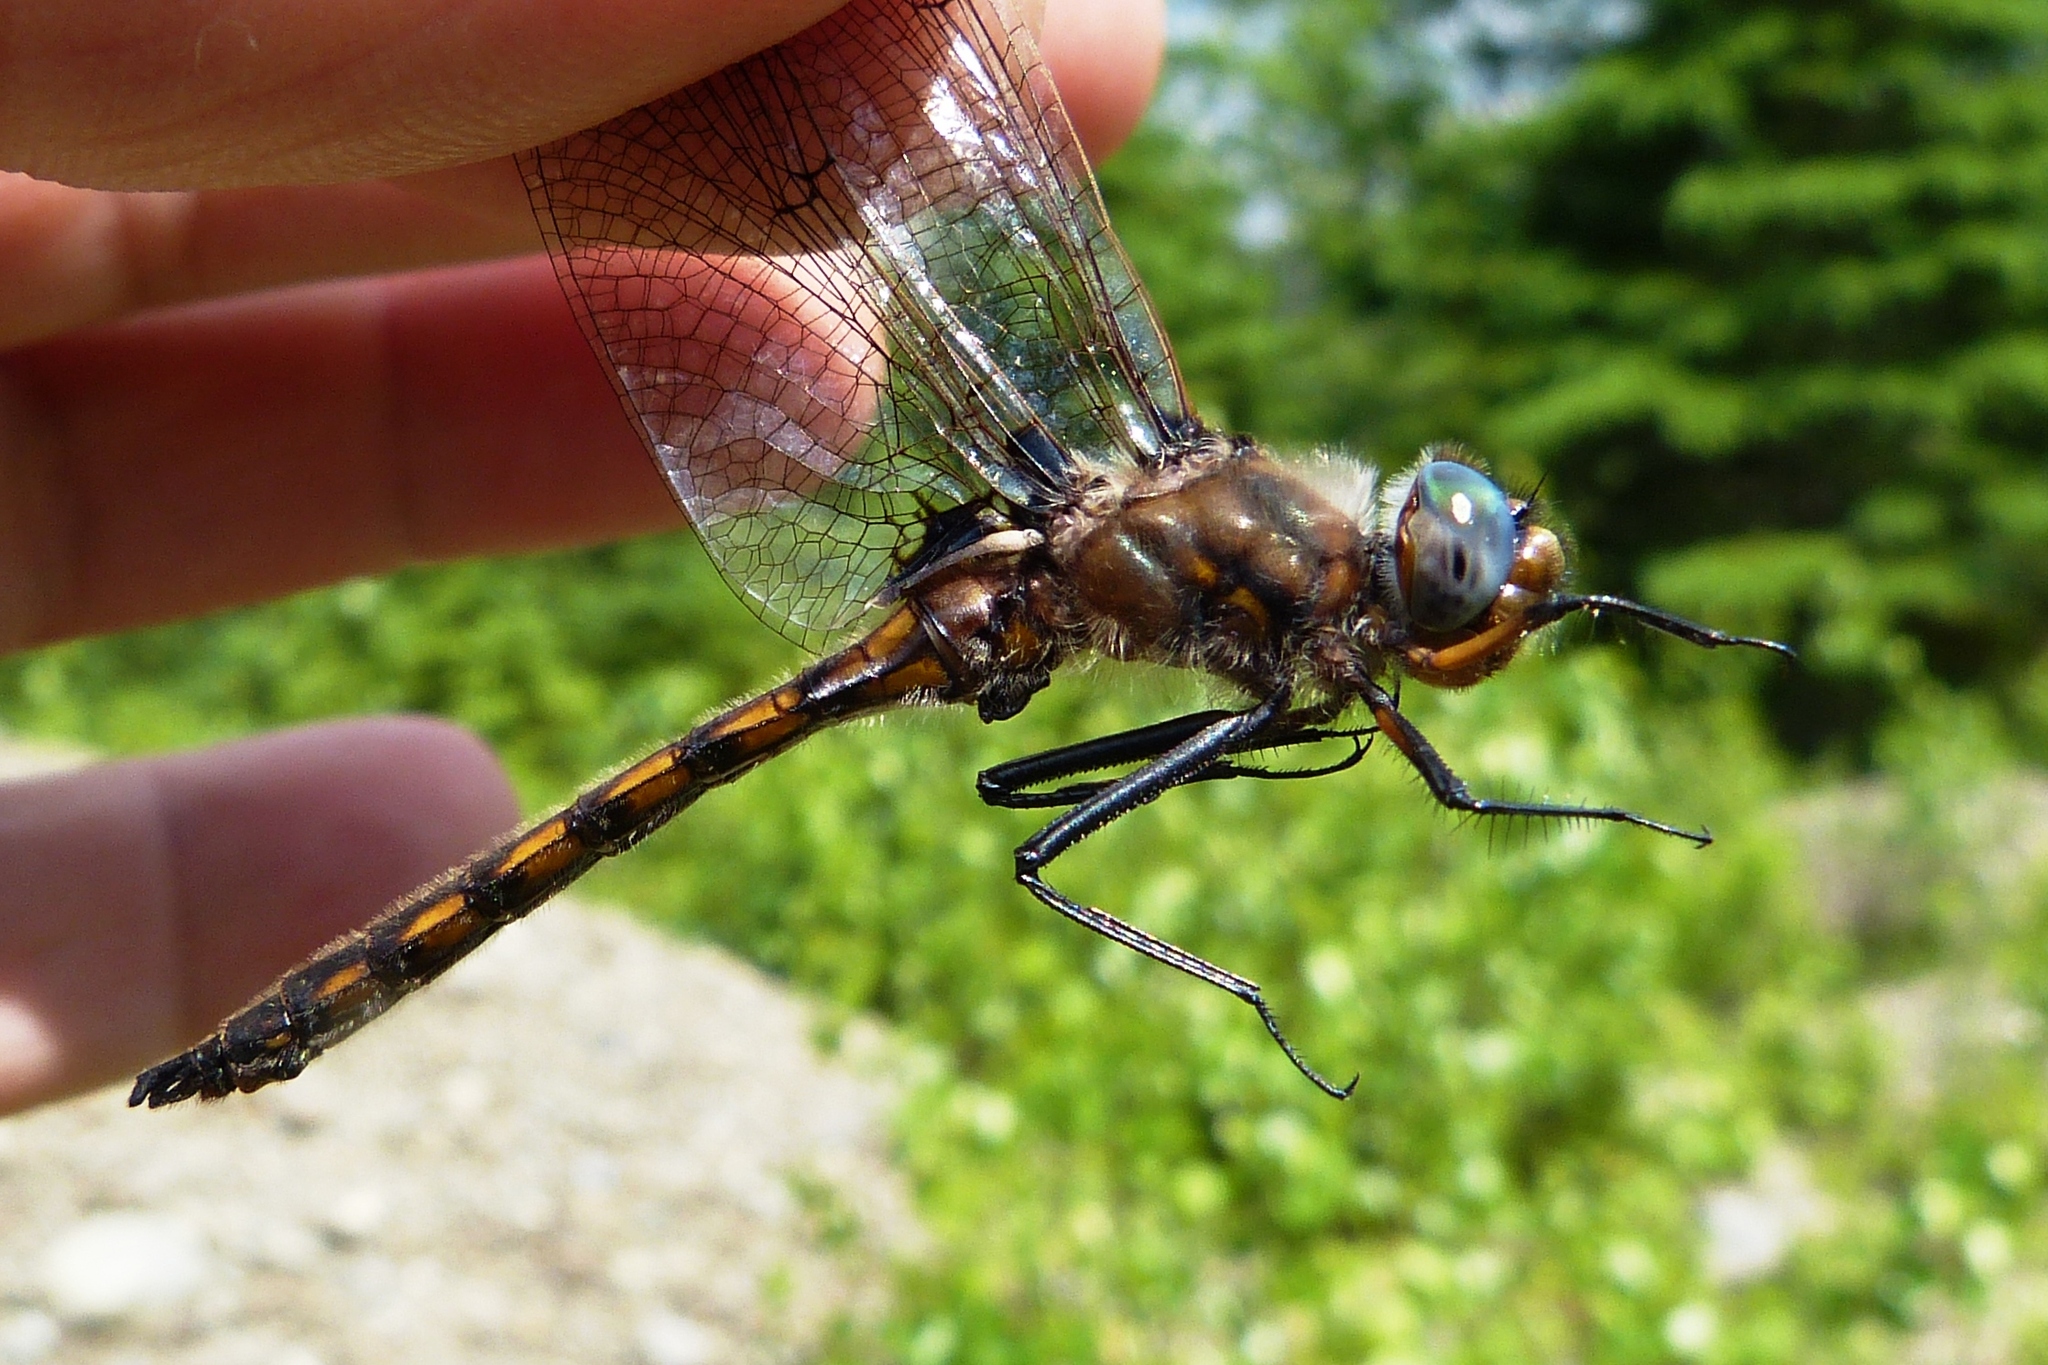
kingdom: Animalia
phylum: Arthropoda
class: Insecta
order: Odonata
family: Corduliidae
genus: Epitheca
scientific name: Epitheca canis
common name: Beaverpond baskettail
